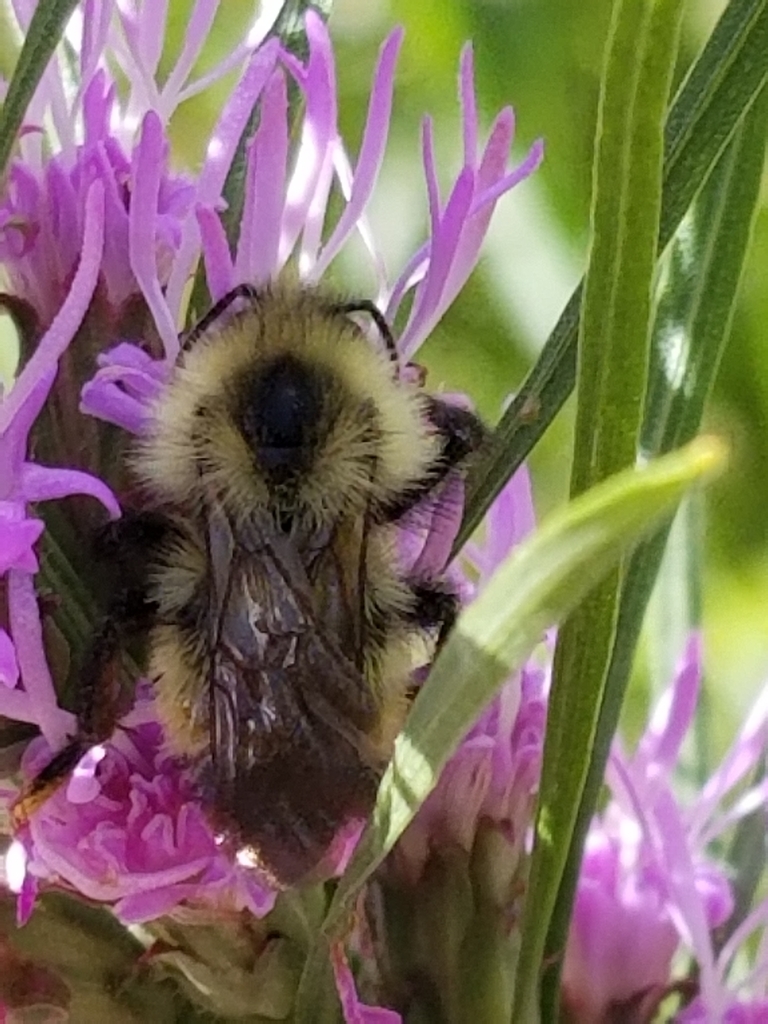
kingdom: Animalia
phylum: Arthropoda
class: Insecta
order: Hymenoptera
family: Apidae
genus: Bombus
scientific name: Bombus citrinus
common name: Lemon cuckoo bumble bee
